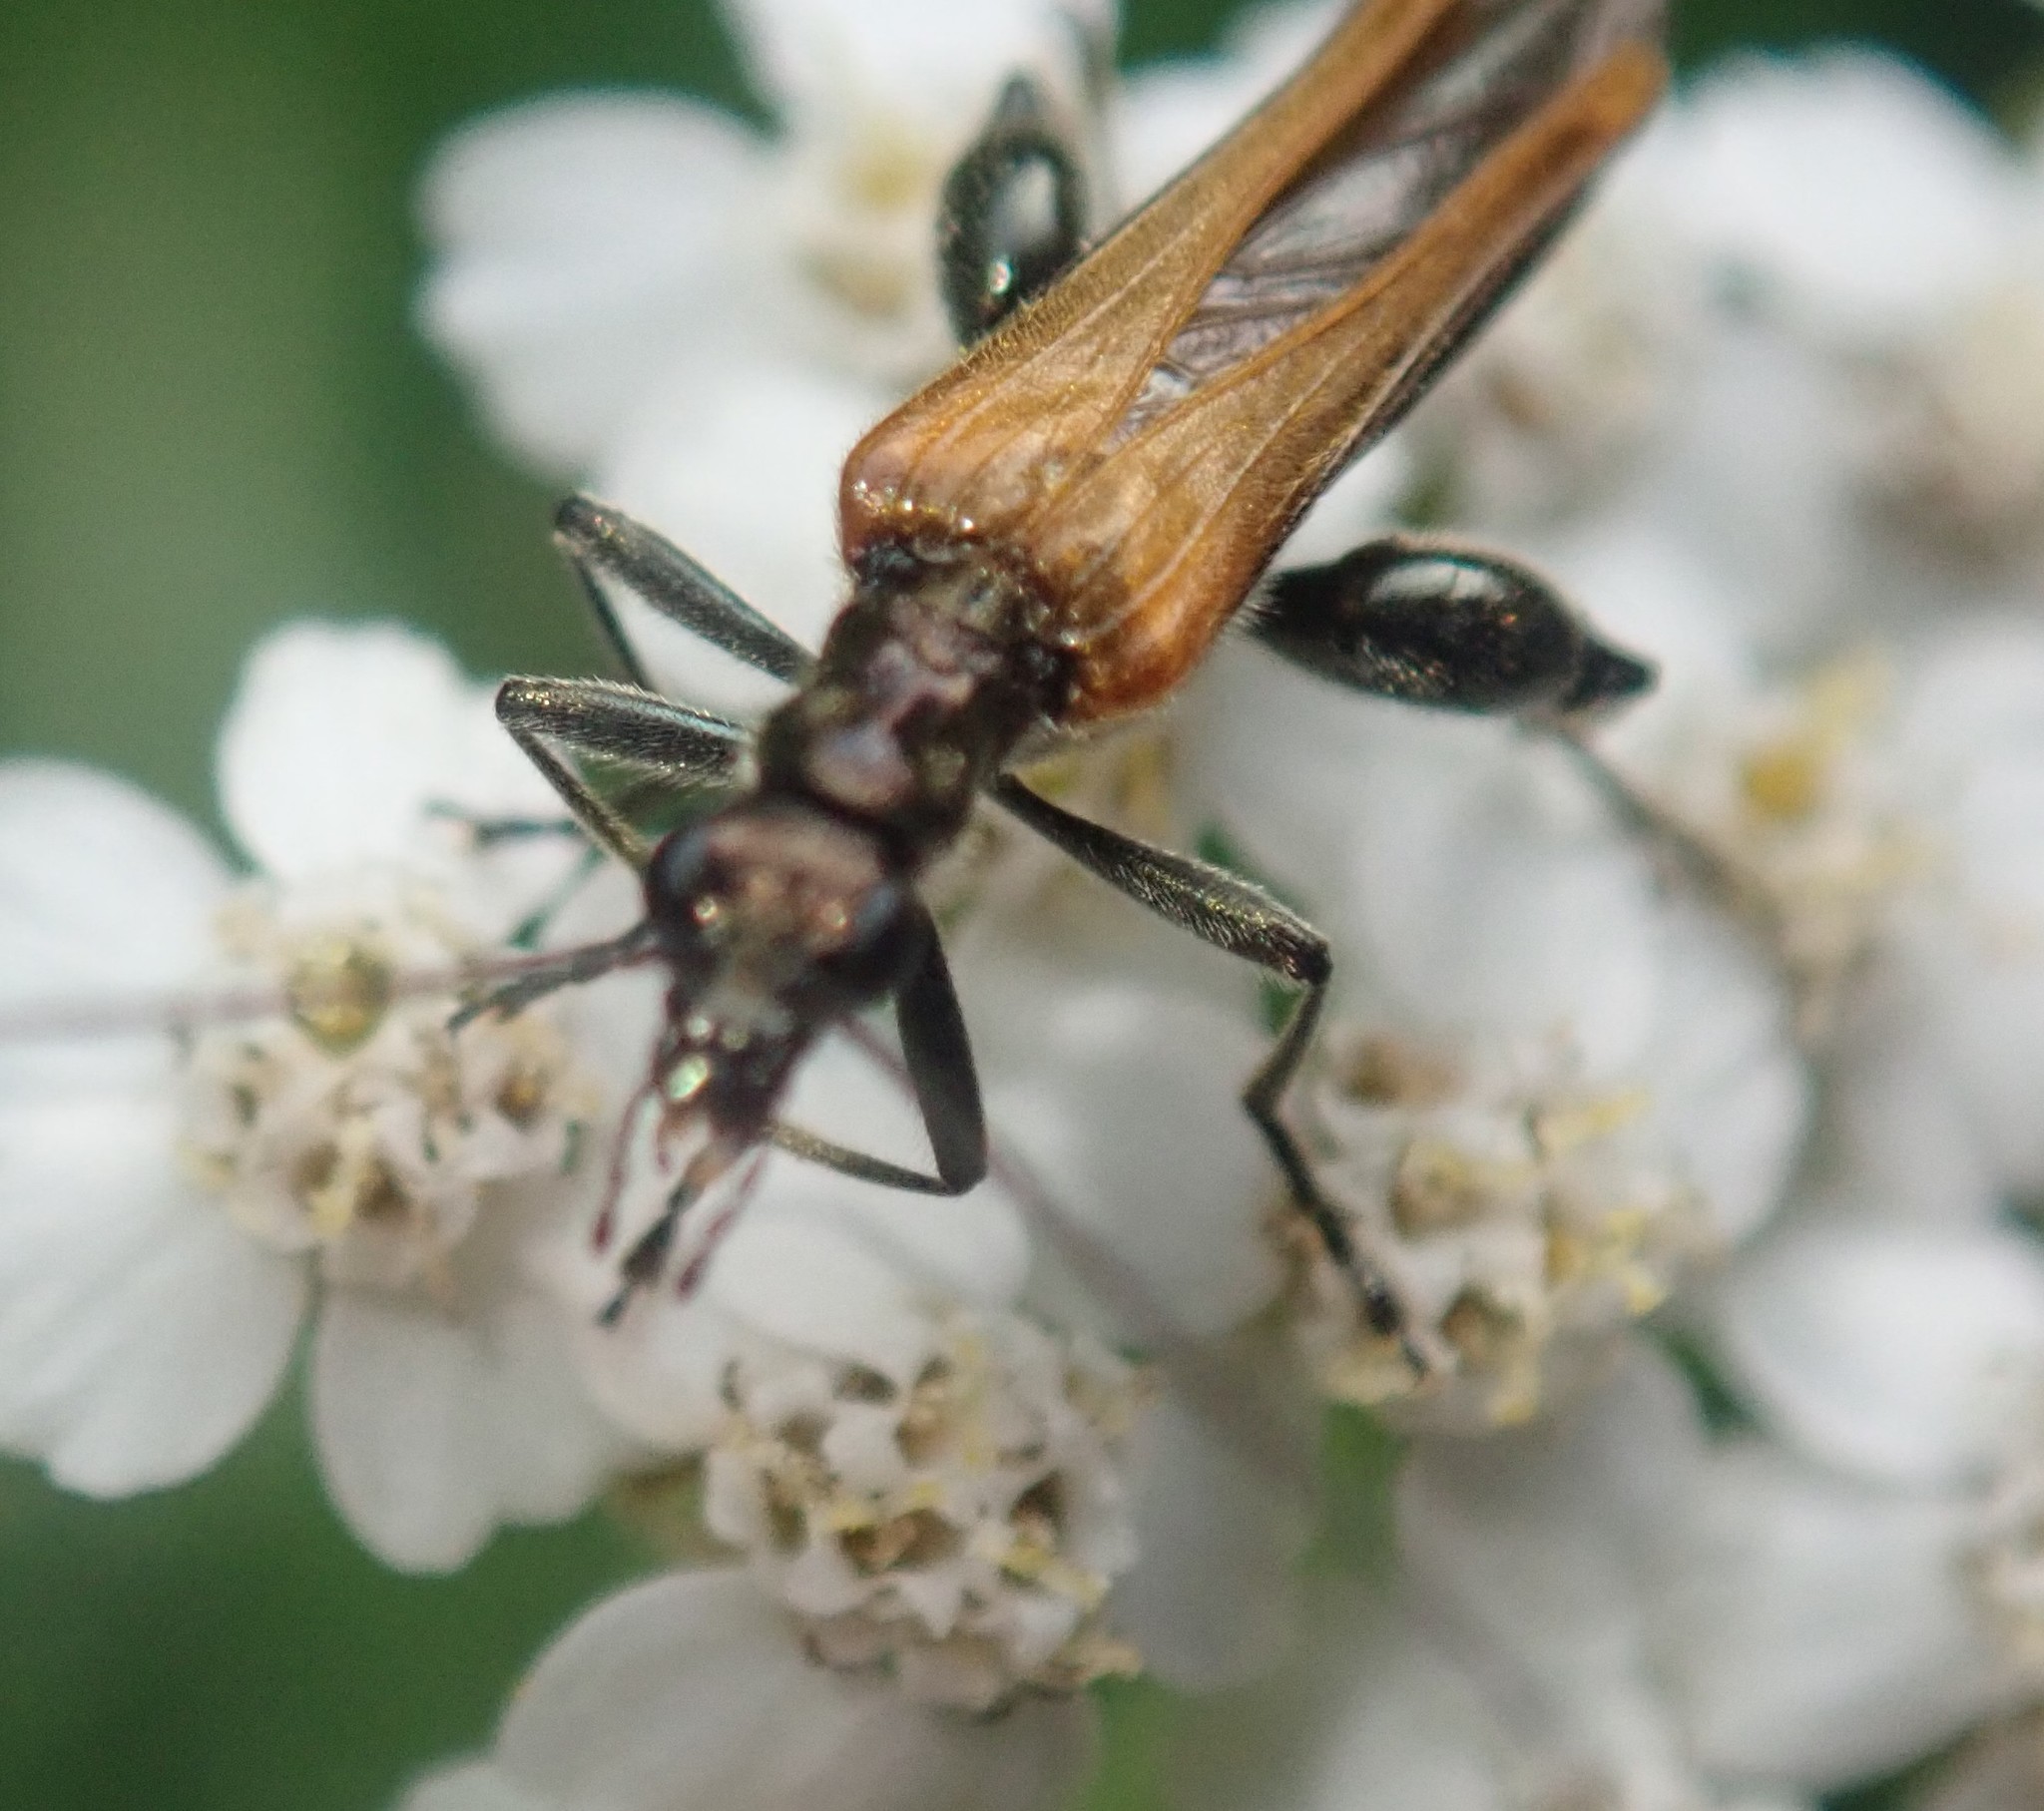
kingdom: Animalia
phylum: Arthropoda
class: Insecta
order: Coleoptera
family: Oedemeridae
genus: Oedemera
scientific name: Oedemera femorata
